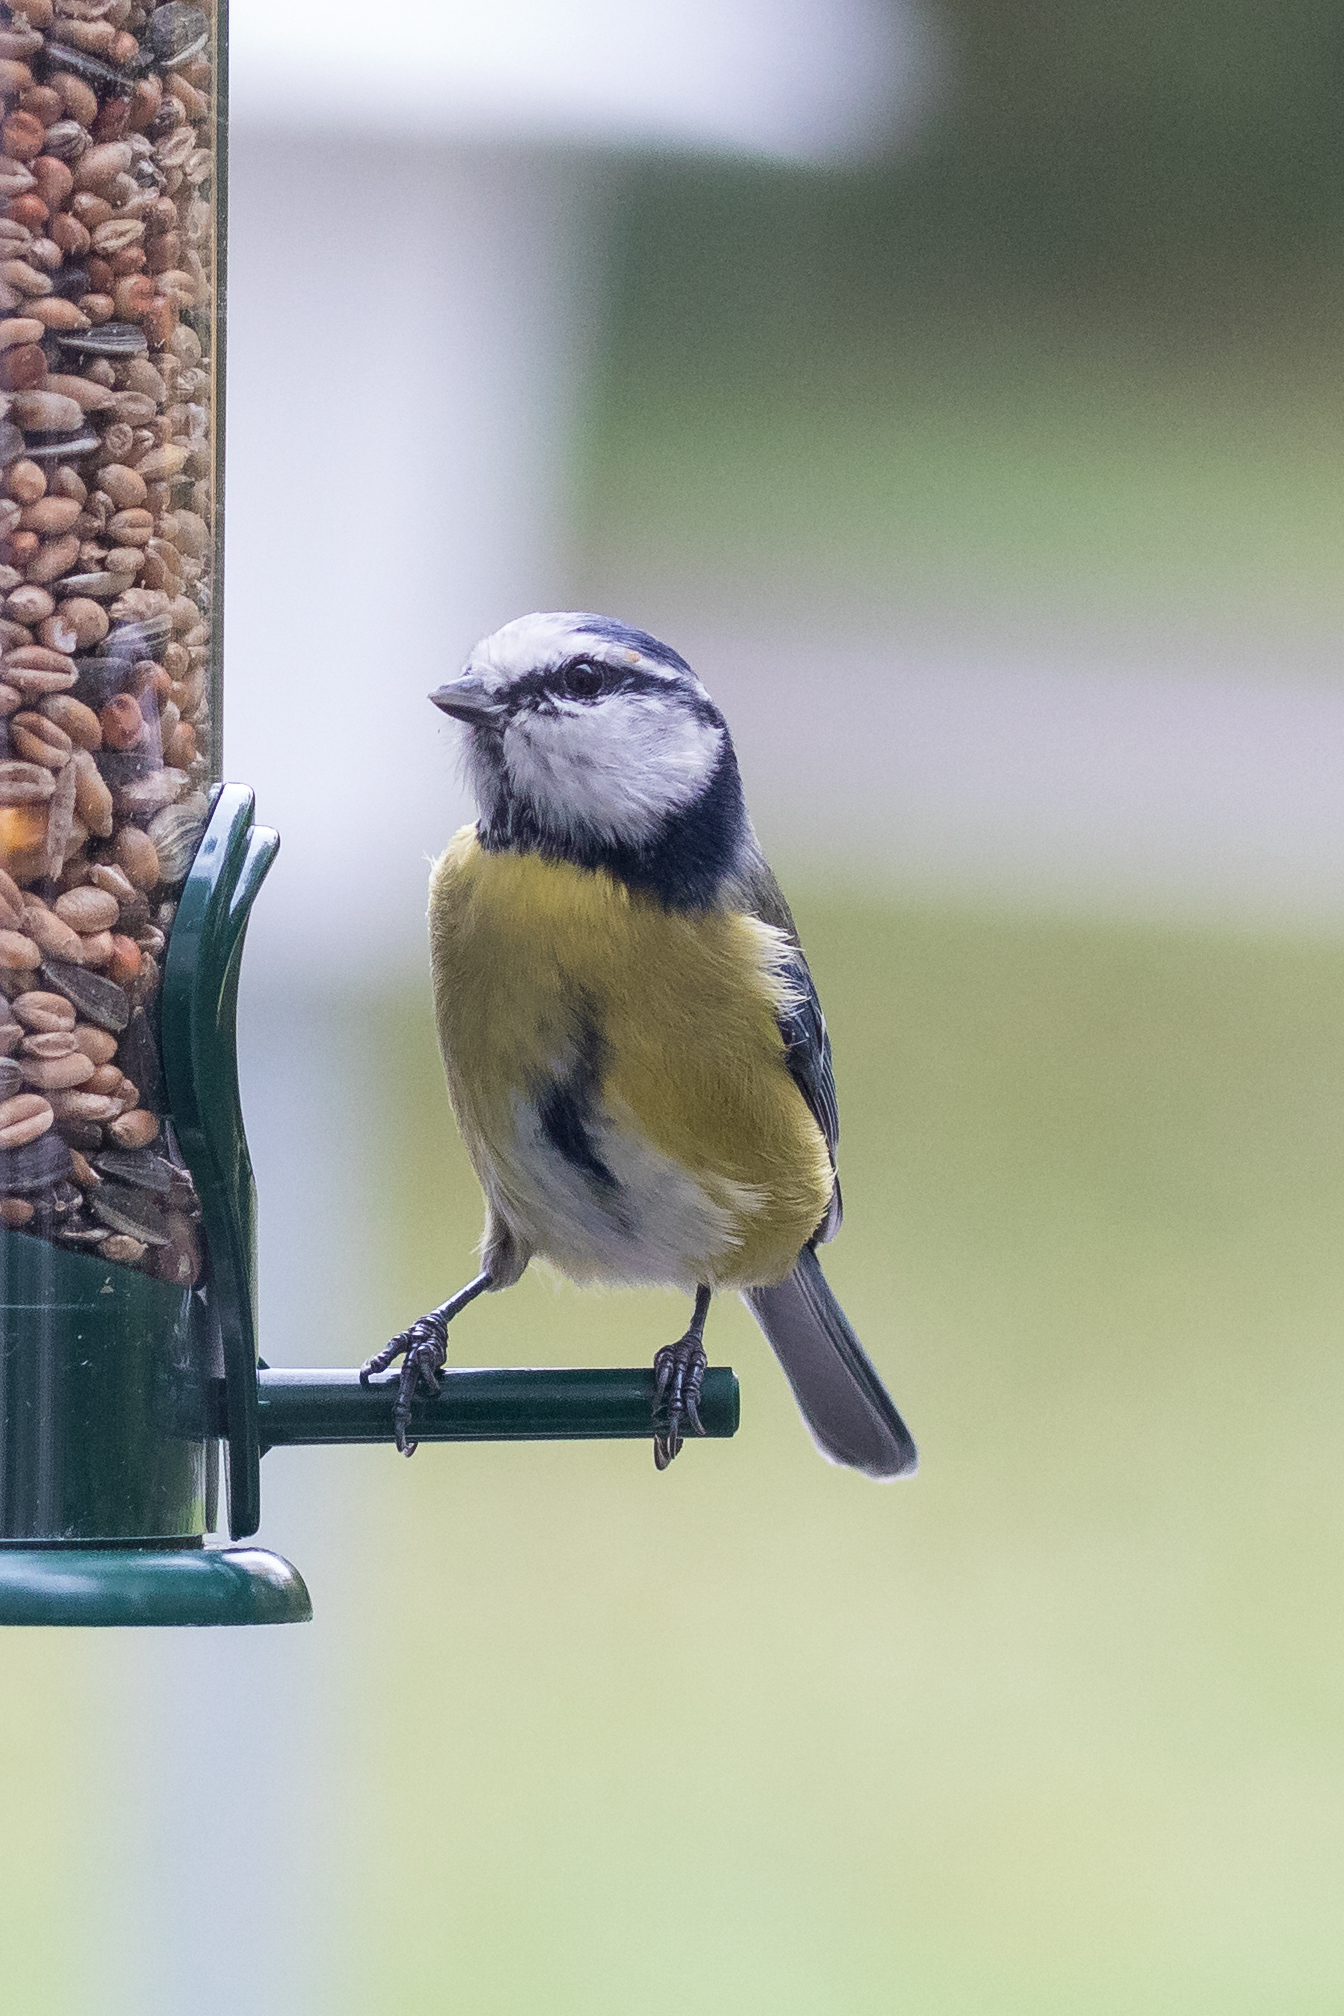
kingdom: Animalia
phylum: Chordata
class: Aves
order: Passeriformes
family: Paridae
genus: Cyanistes
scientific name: Cyanistes caeruleus
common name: Eurasian blue tit
